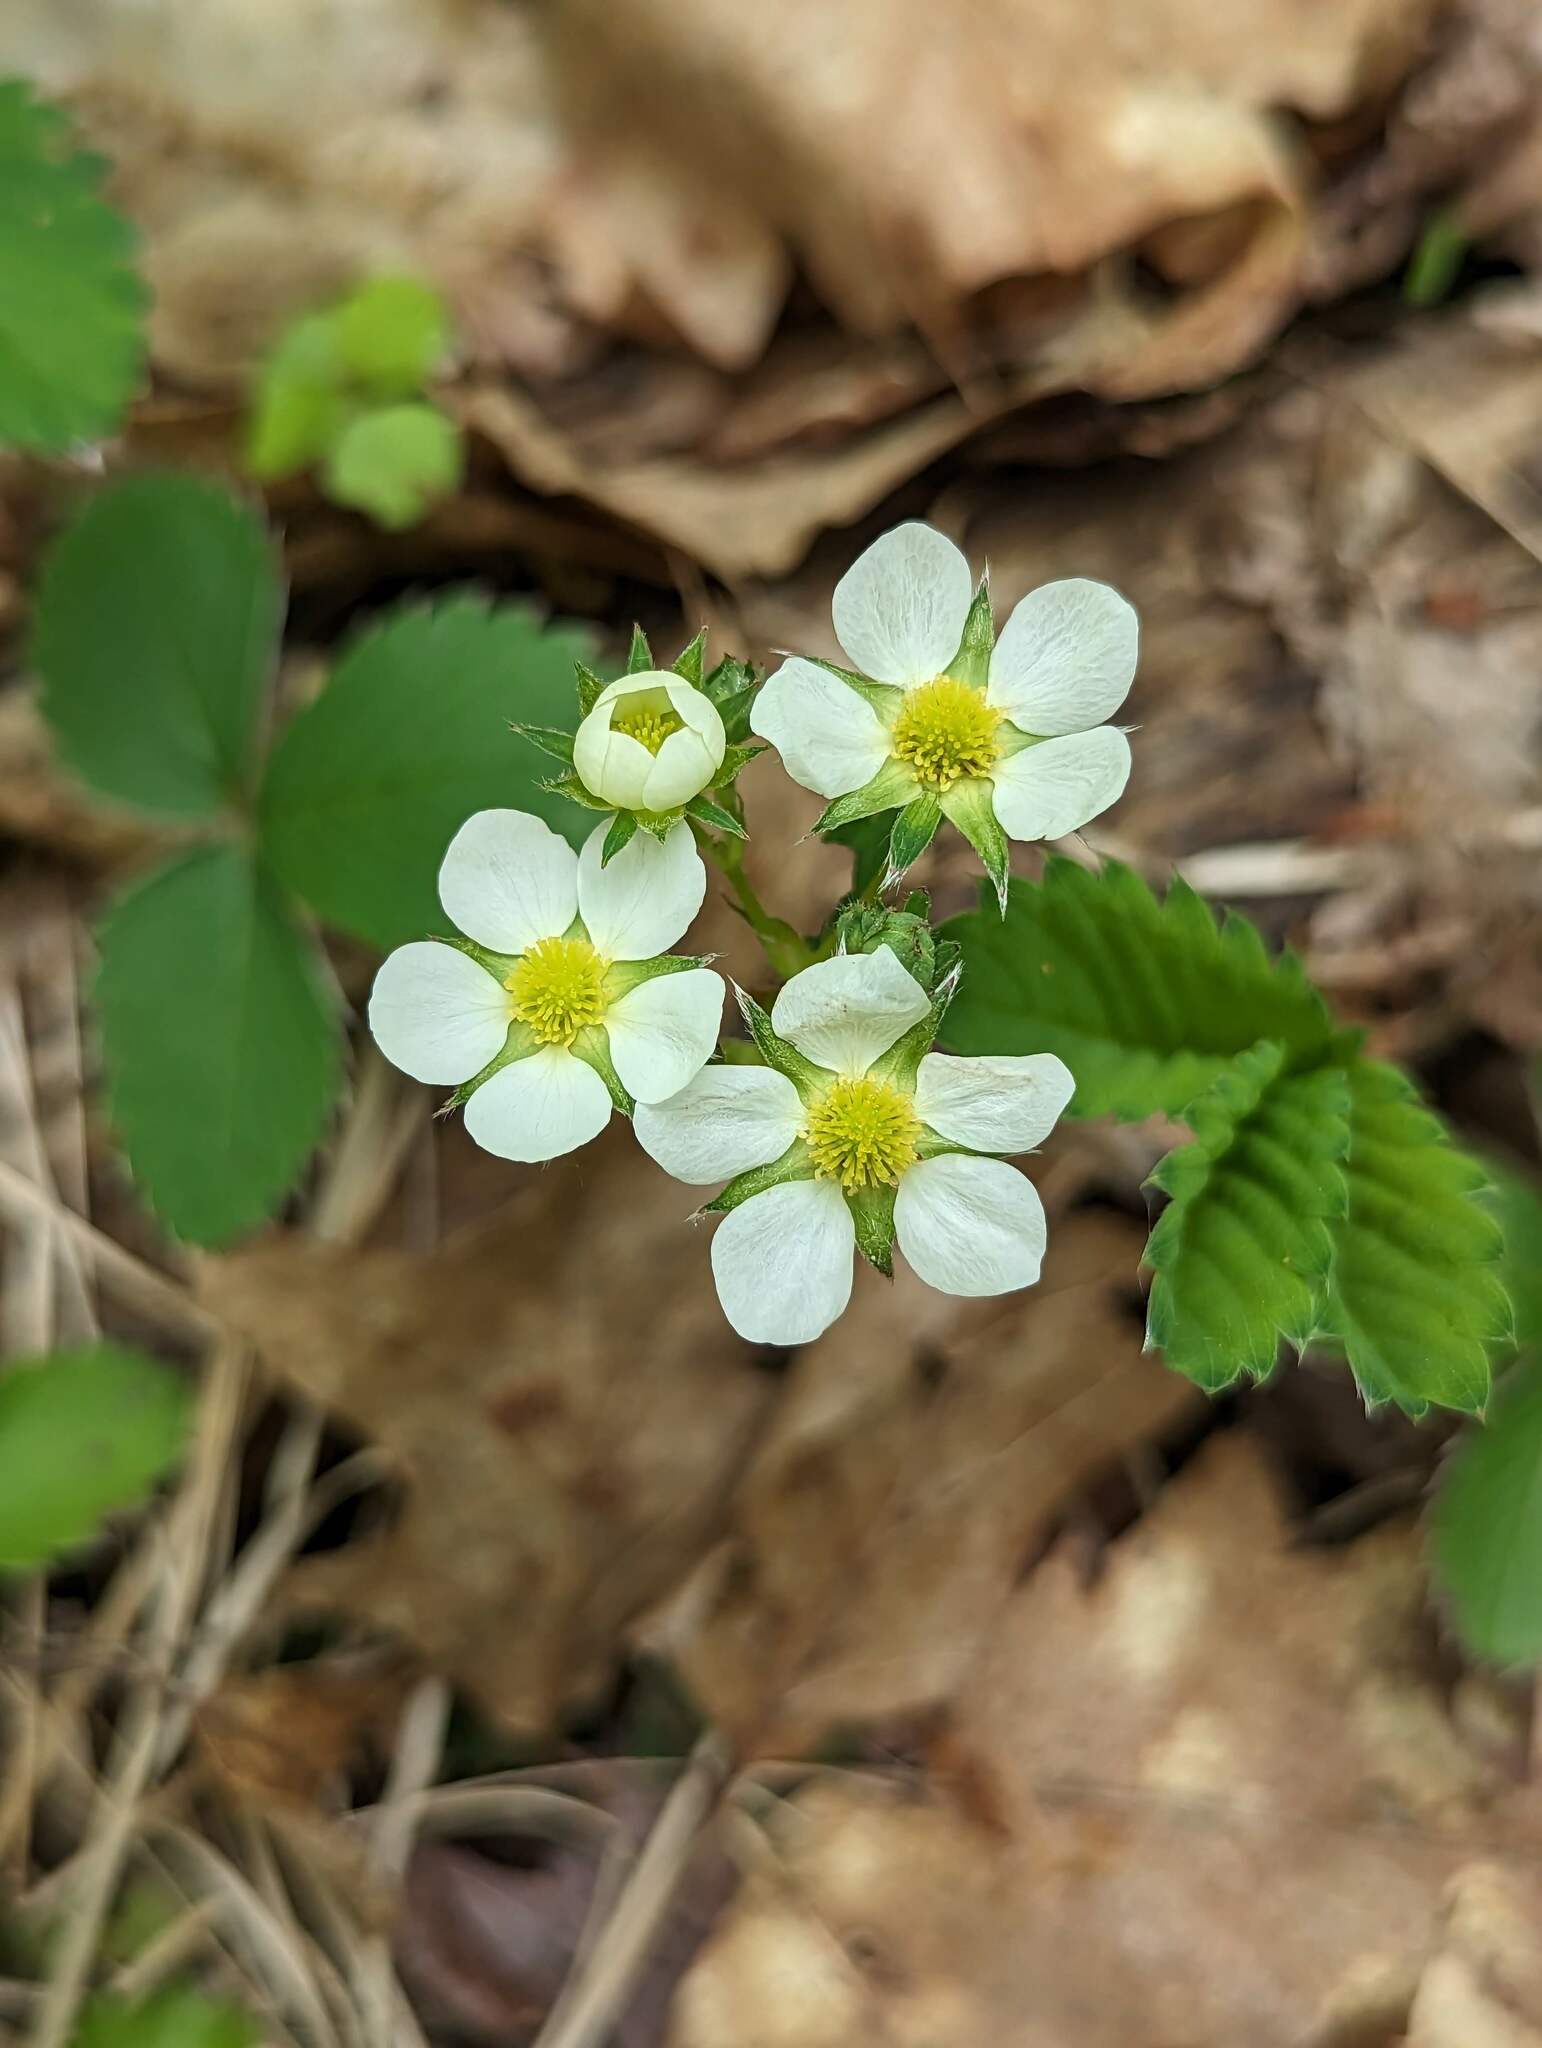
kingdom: Plantae
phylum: Tracheophyta
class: Magnoliopsida
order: Rosales
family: Rosaceae
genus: Fragaria
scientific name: Fragaria virginiana
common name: Thickleaved wild strawberry
